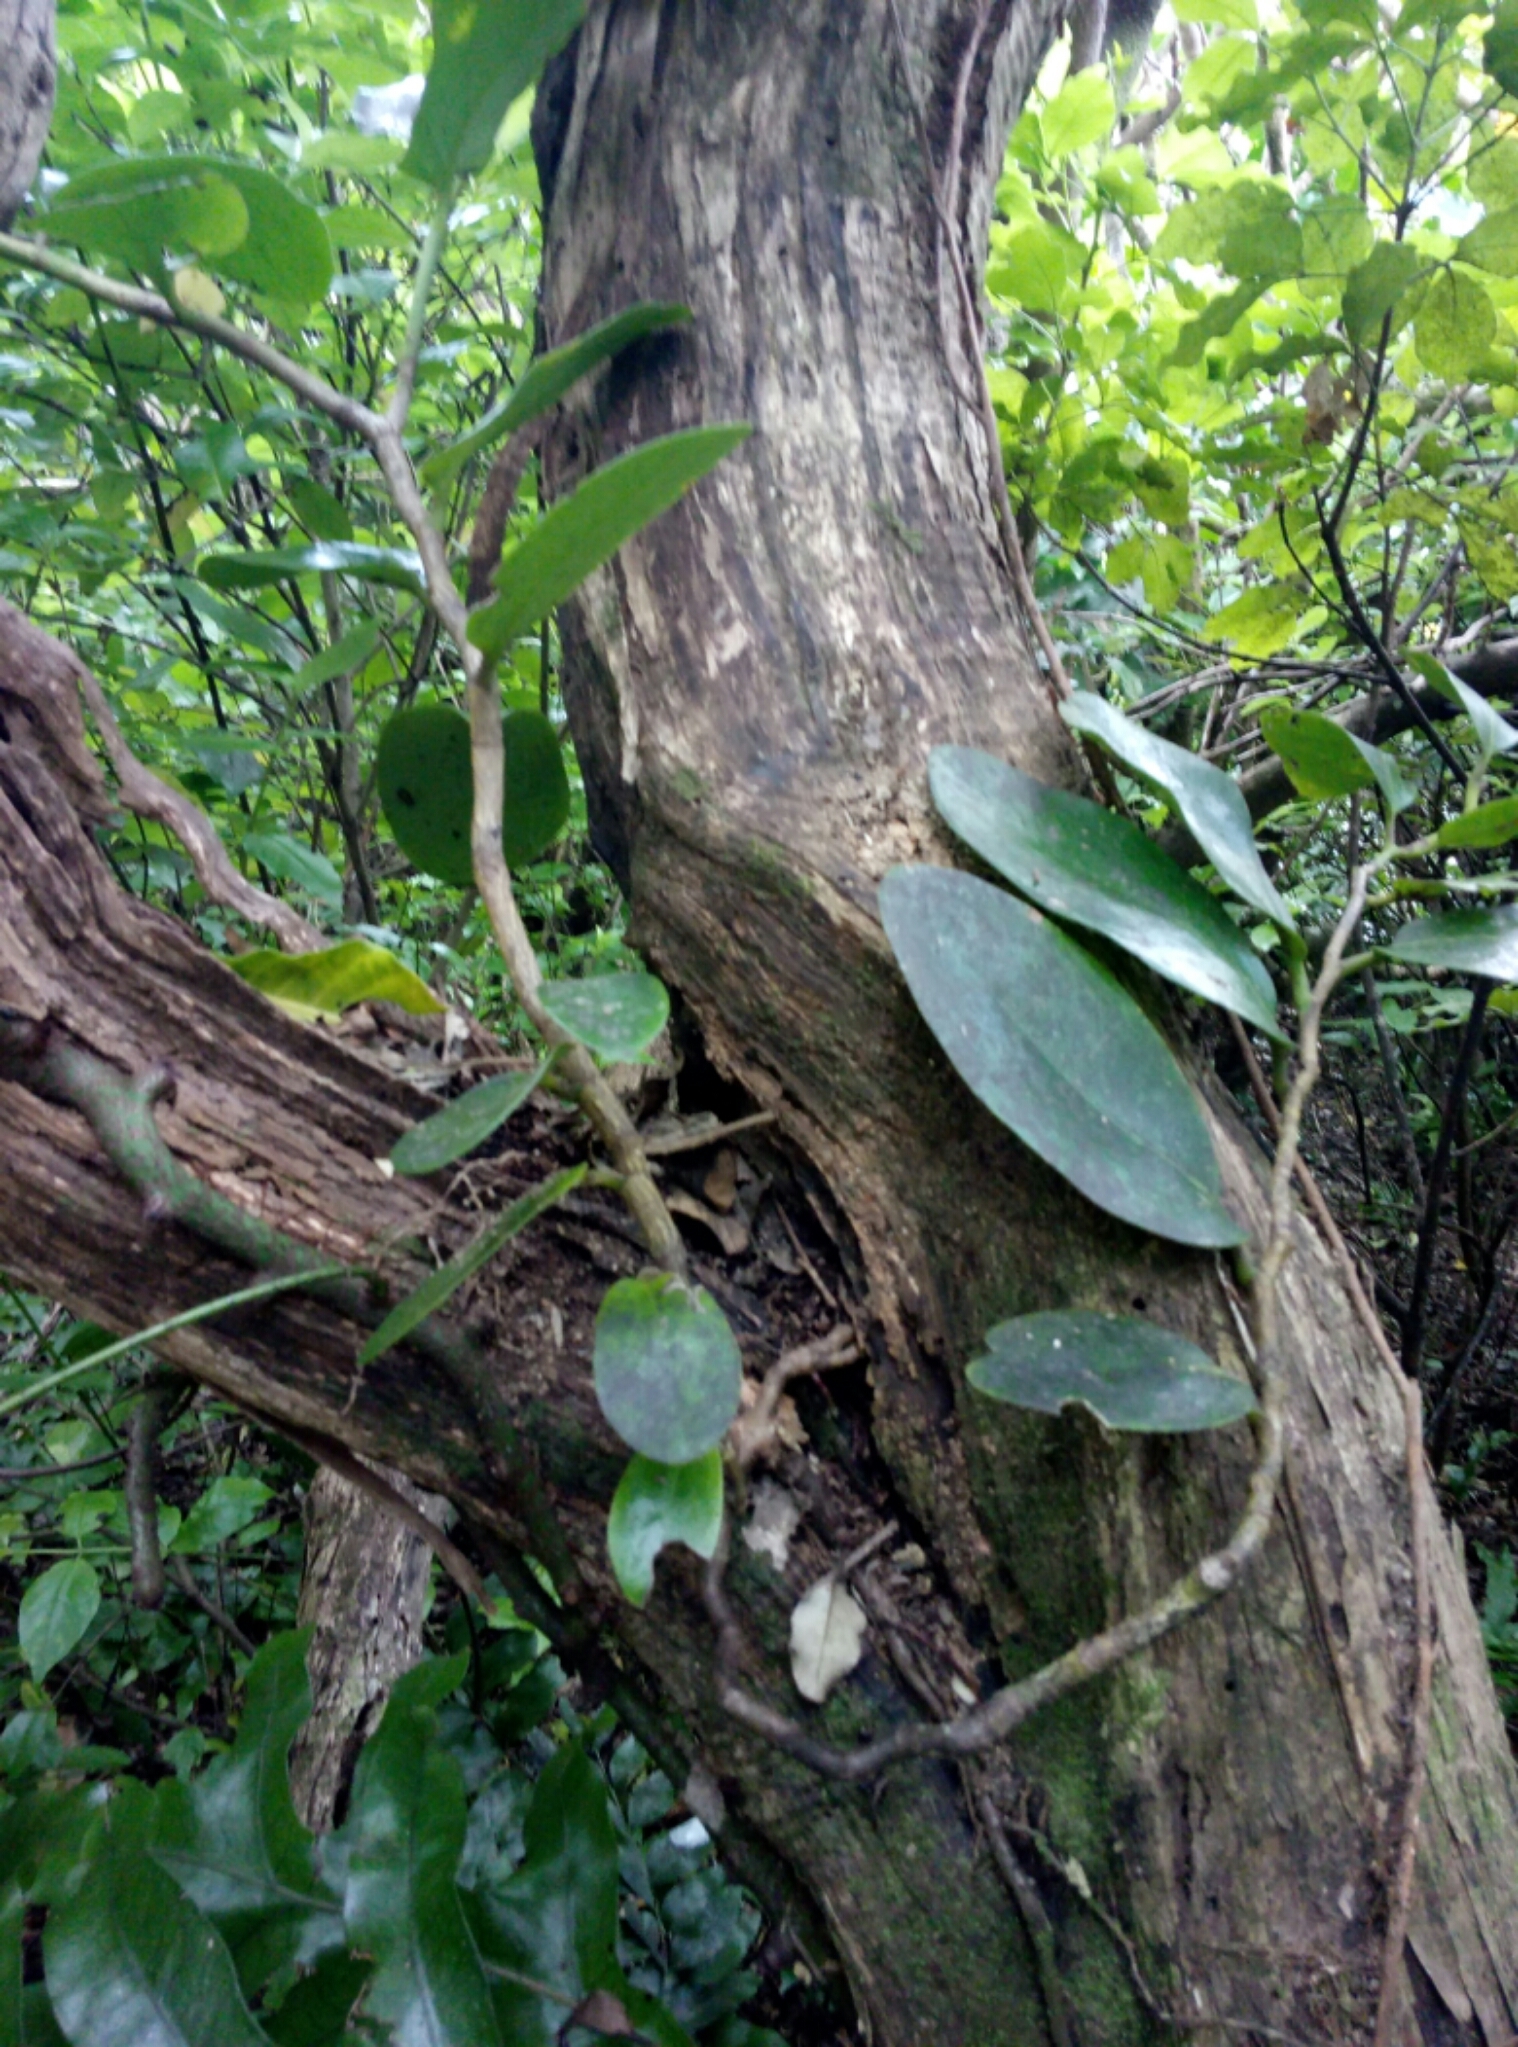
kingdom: Plantae
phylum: Tracheophyta
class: Magnoliopsida
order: Apiales
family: Griseliniaceae
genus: Griselinia
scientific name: Griselinia lucida
